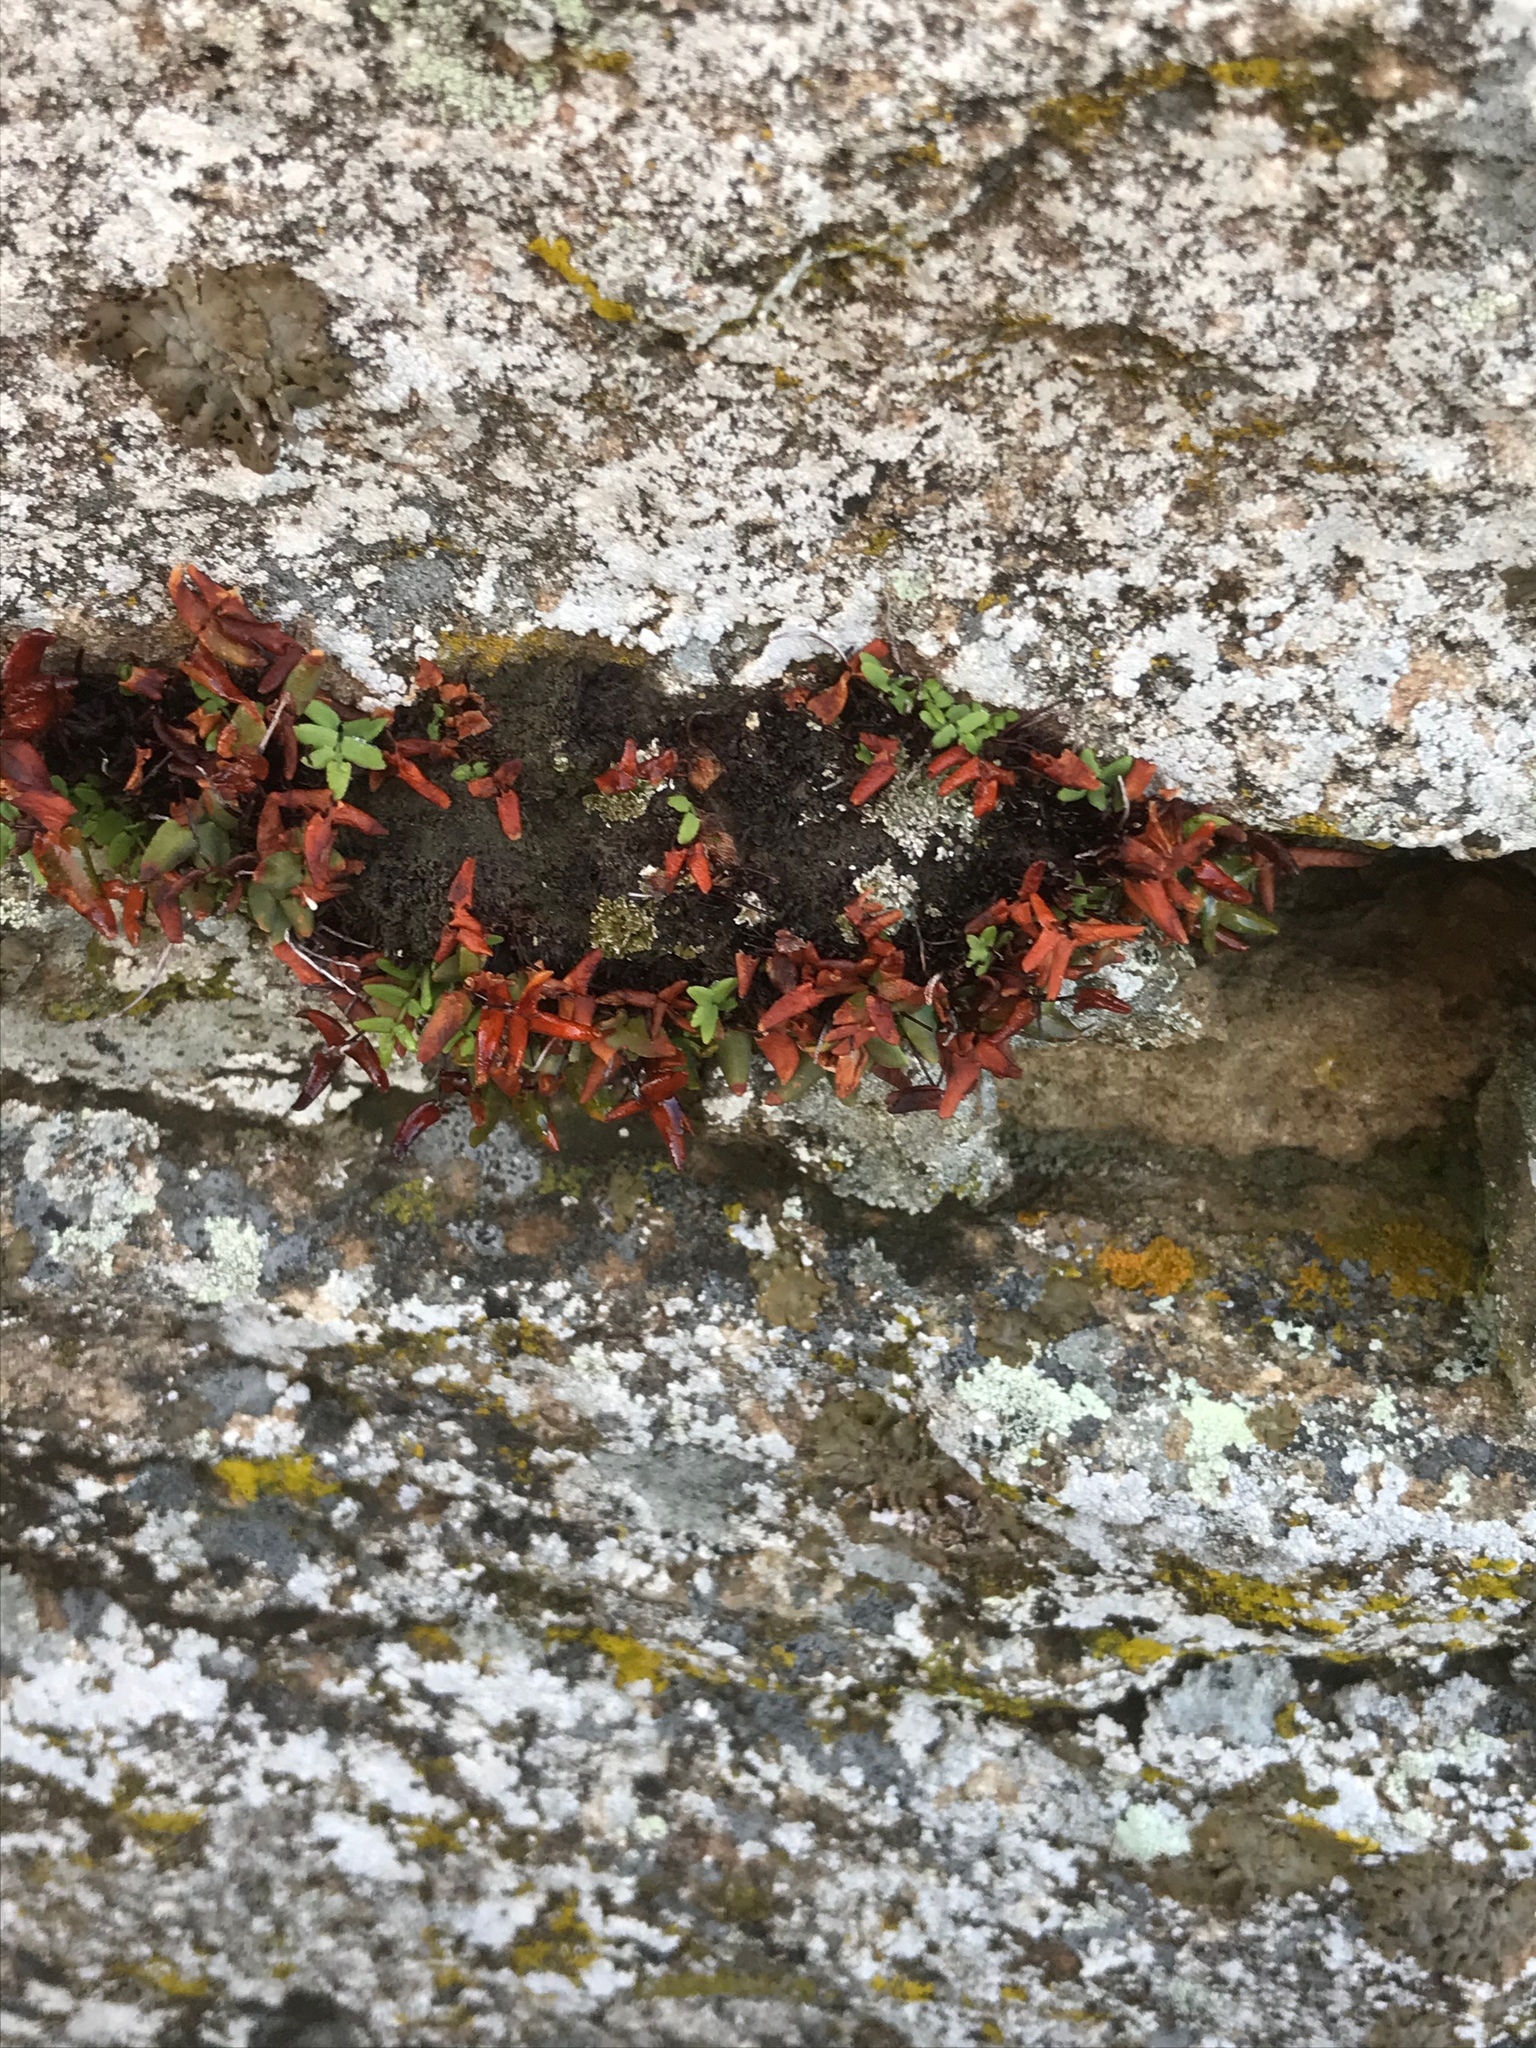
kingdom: Plantae
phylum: Tracheophyta
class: Polypodiopsida
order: Polypodiales
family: Pteridaceae
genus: Pellaea
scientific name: Pellaea glabella
